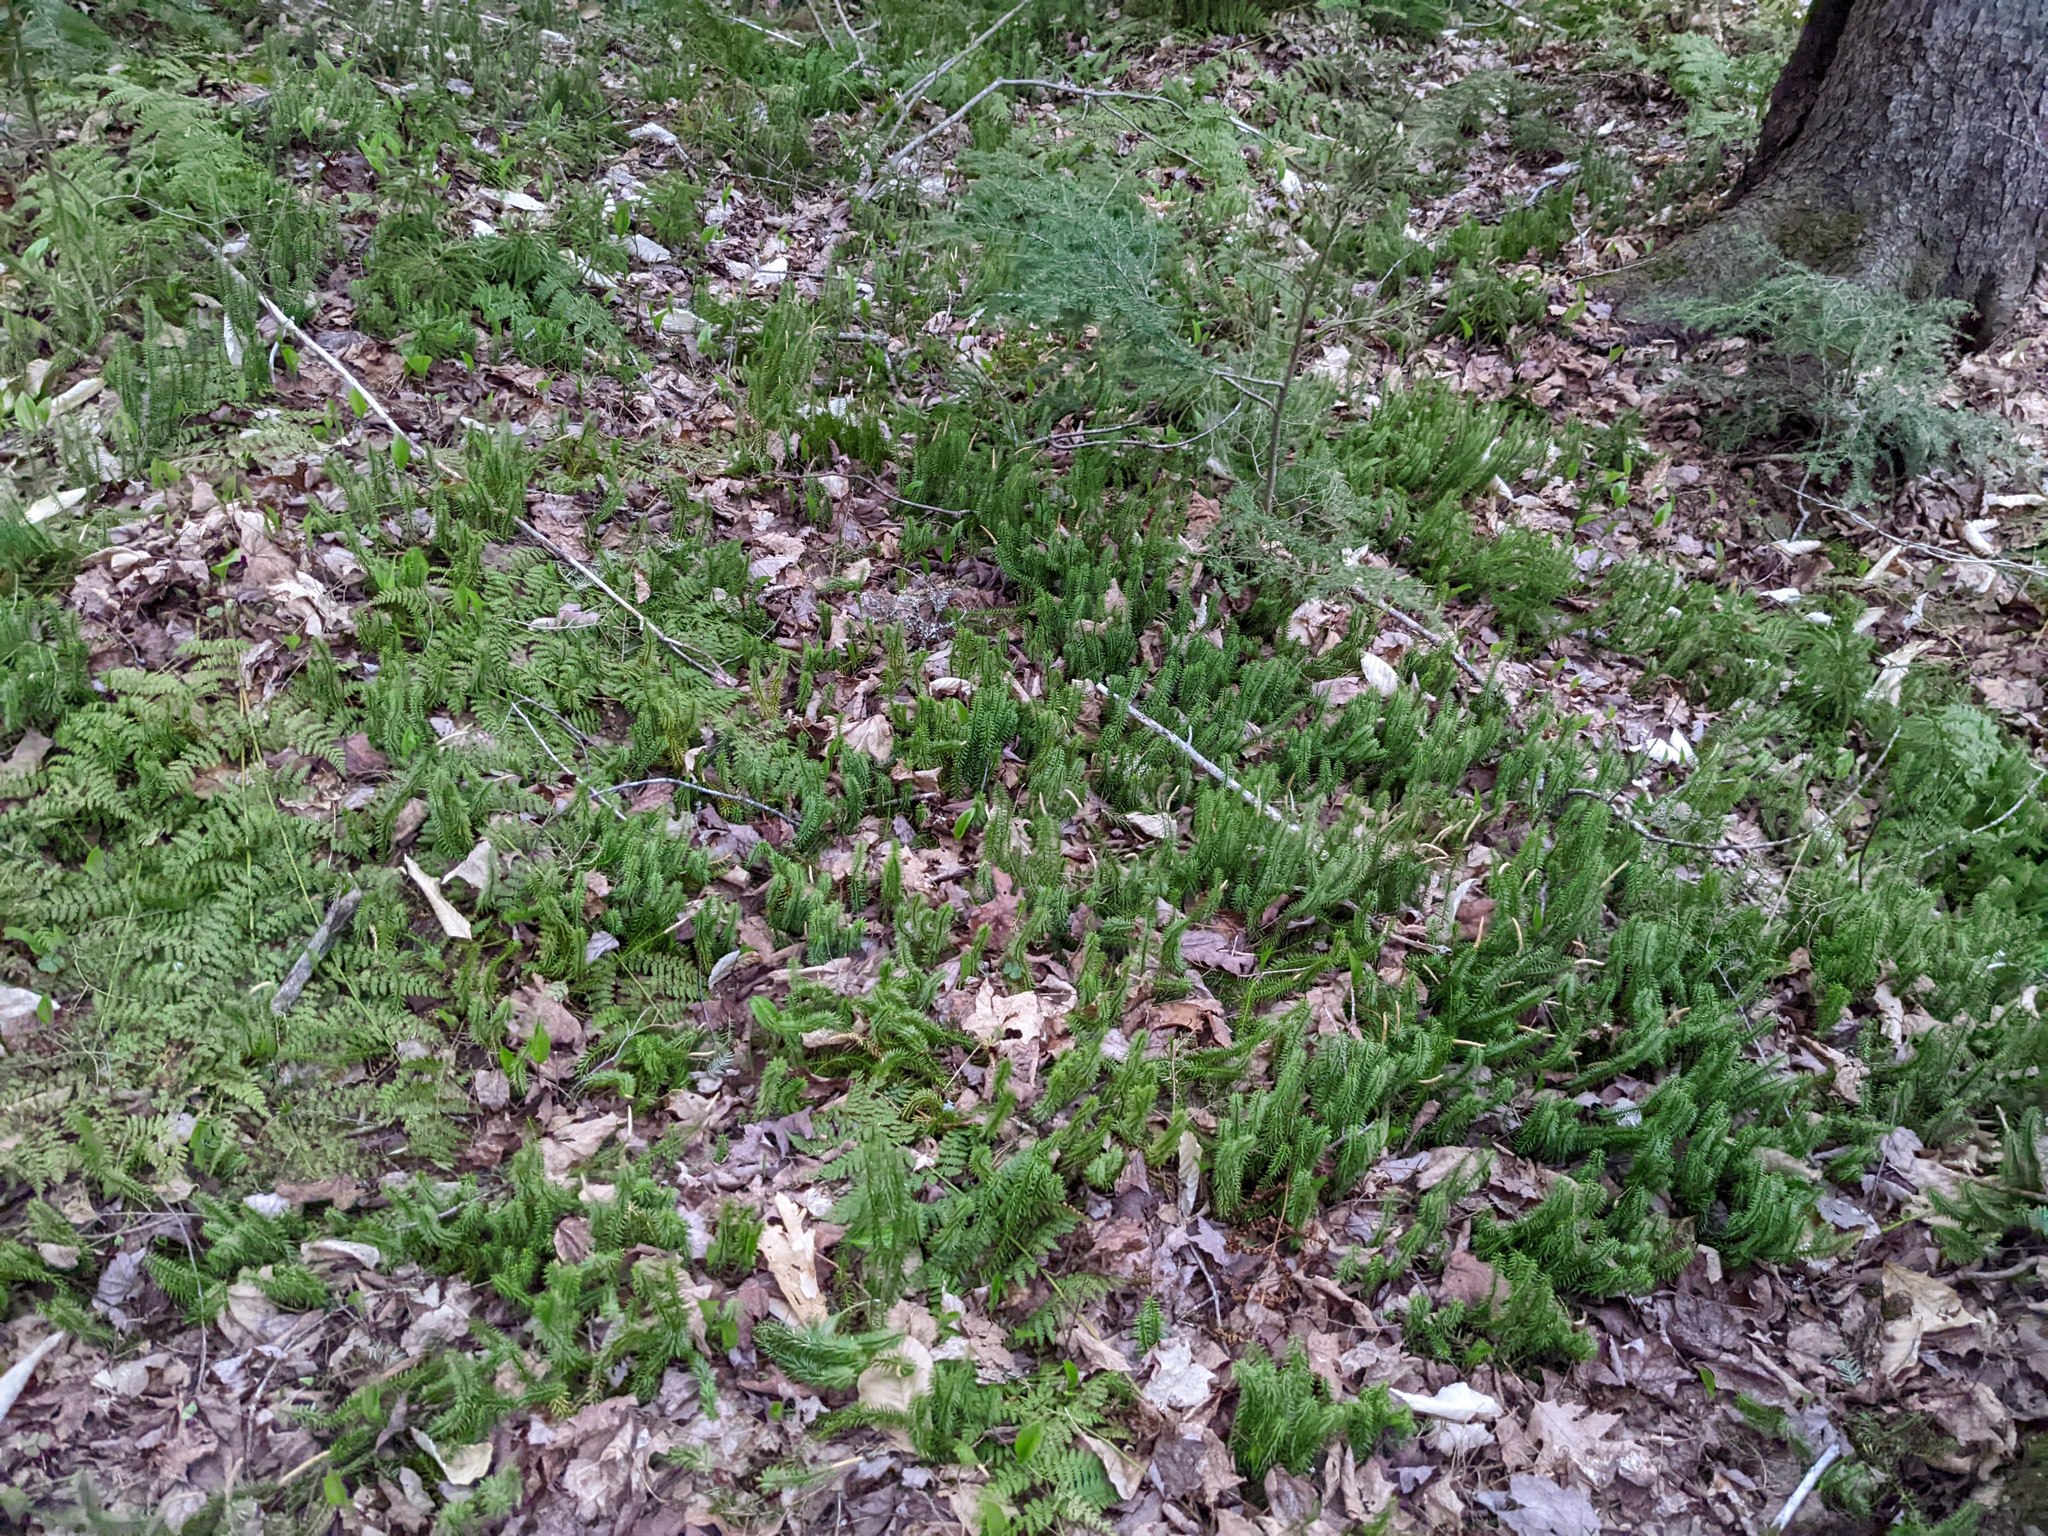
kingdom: Plantae
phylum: Tracheophyta
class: Lycopodiopsida
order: Lycopodiales
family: Lycopodiaceae
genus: Spinulum
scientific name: Spinulum annotinum
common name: Interrupted club-moss
